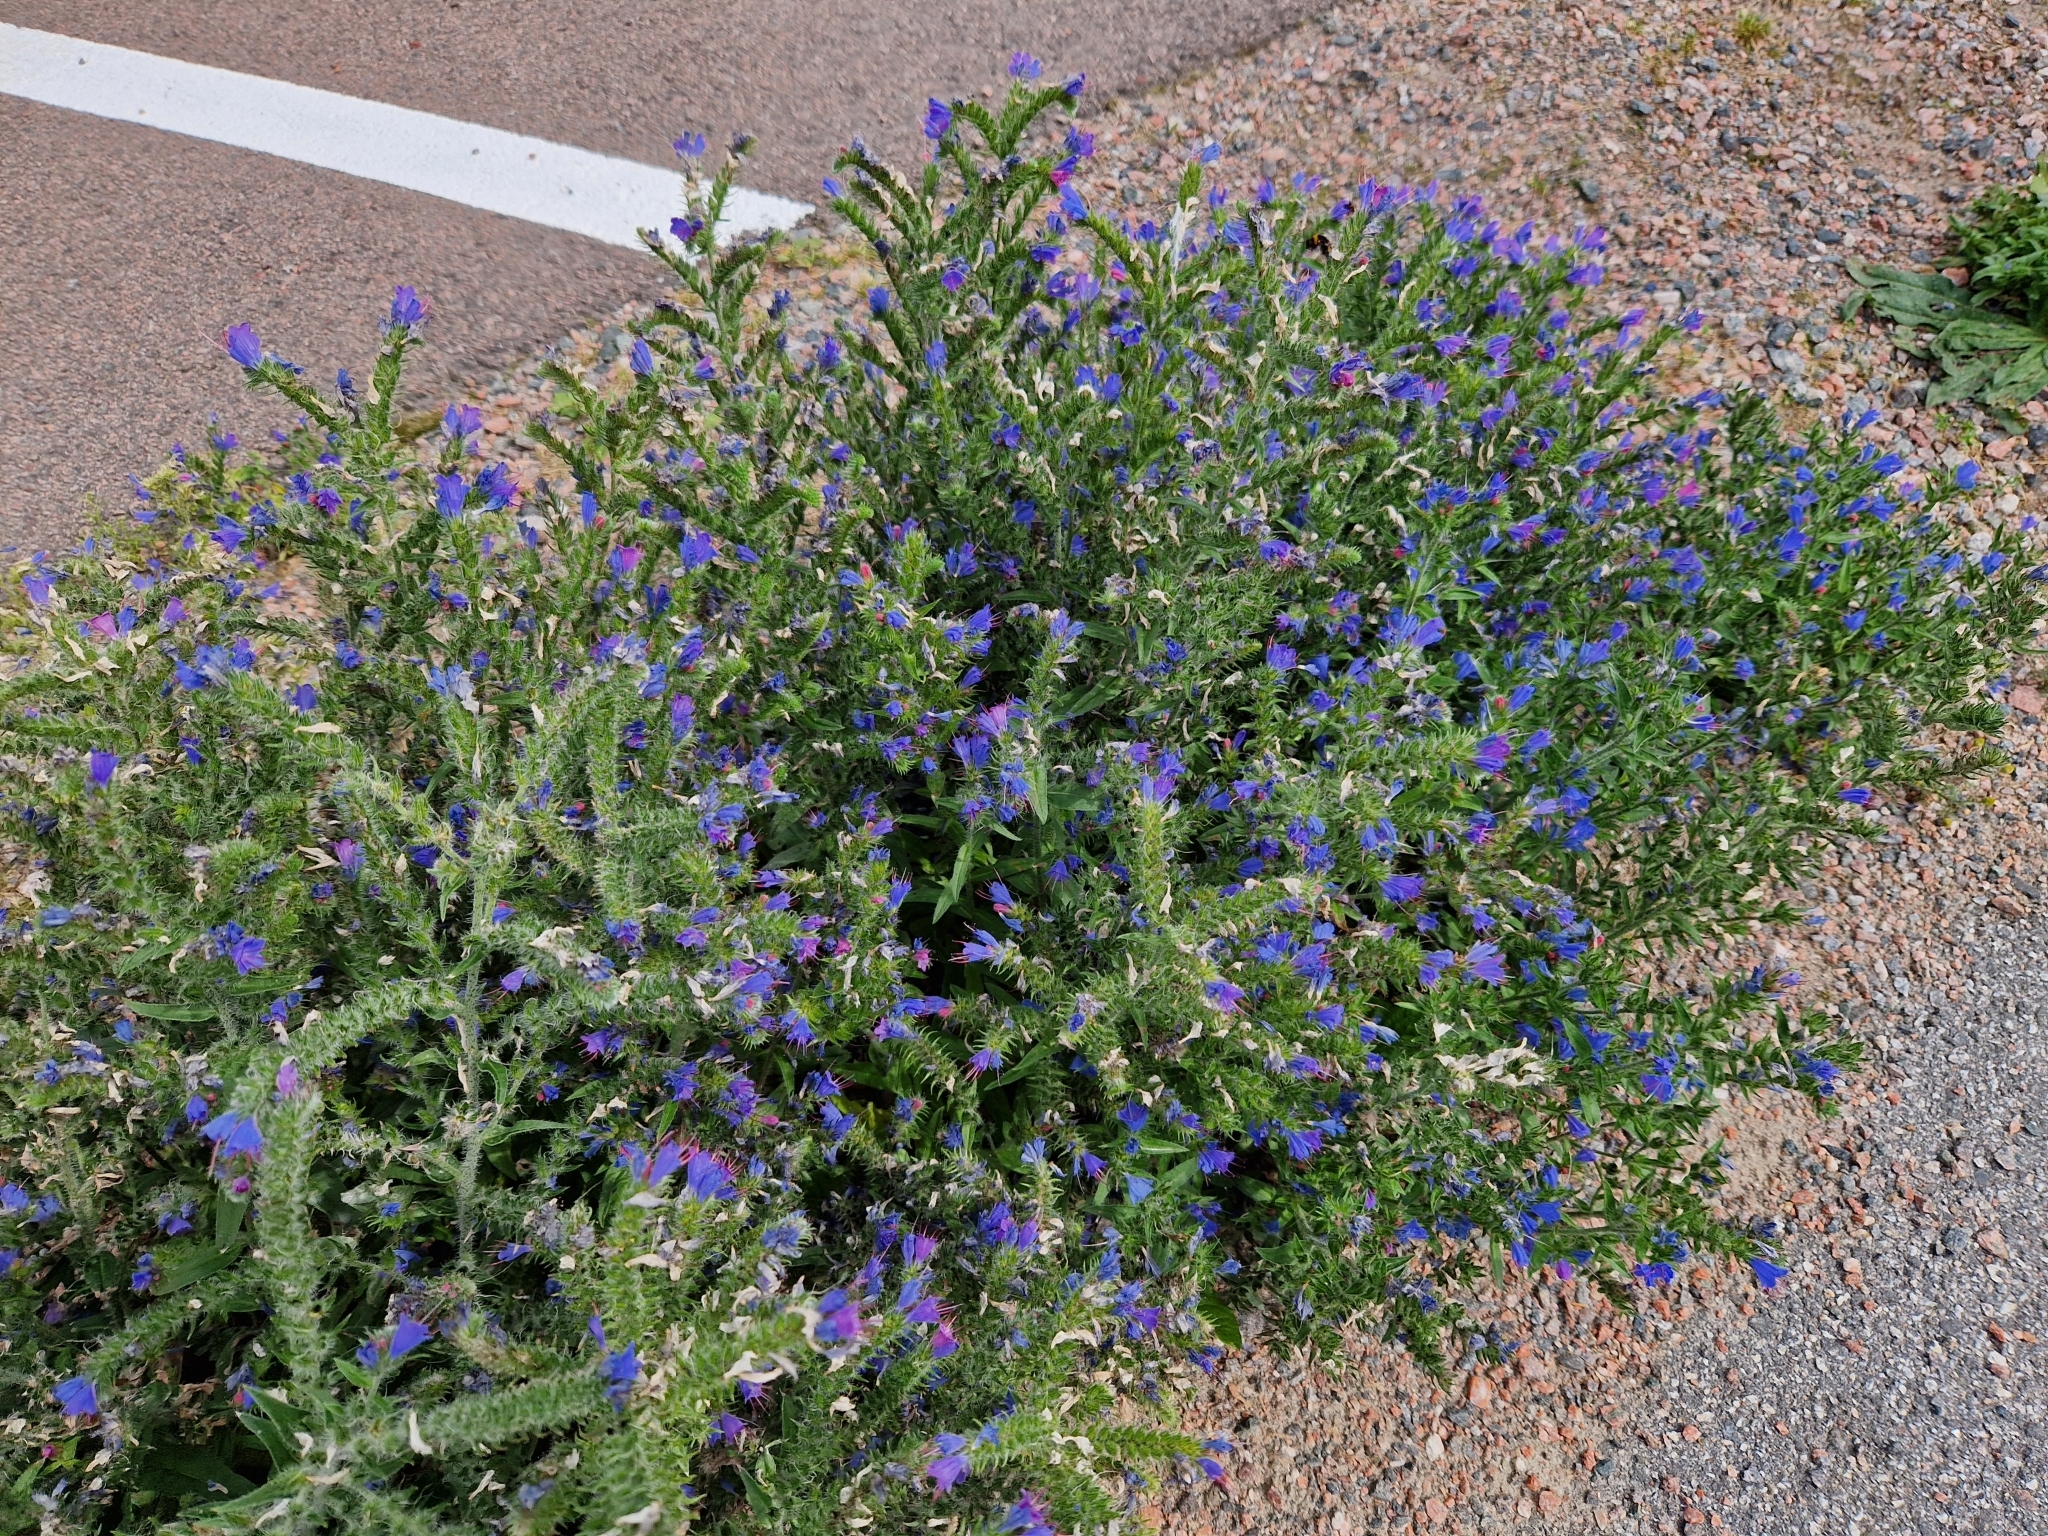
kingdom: Plantae
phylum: Tracheophyta
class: Magnoliopsida
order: Boraginales
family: Boraginaceae
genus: Echium
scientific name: Echium vulgare
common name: Common viper's bugloss
